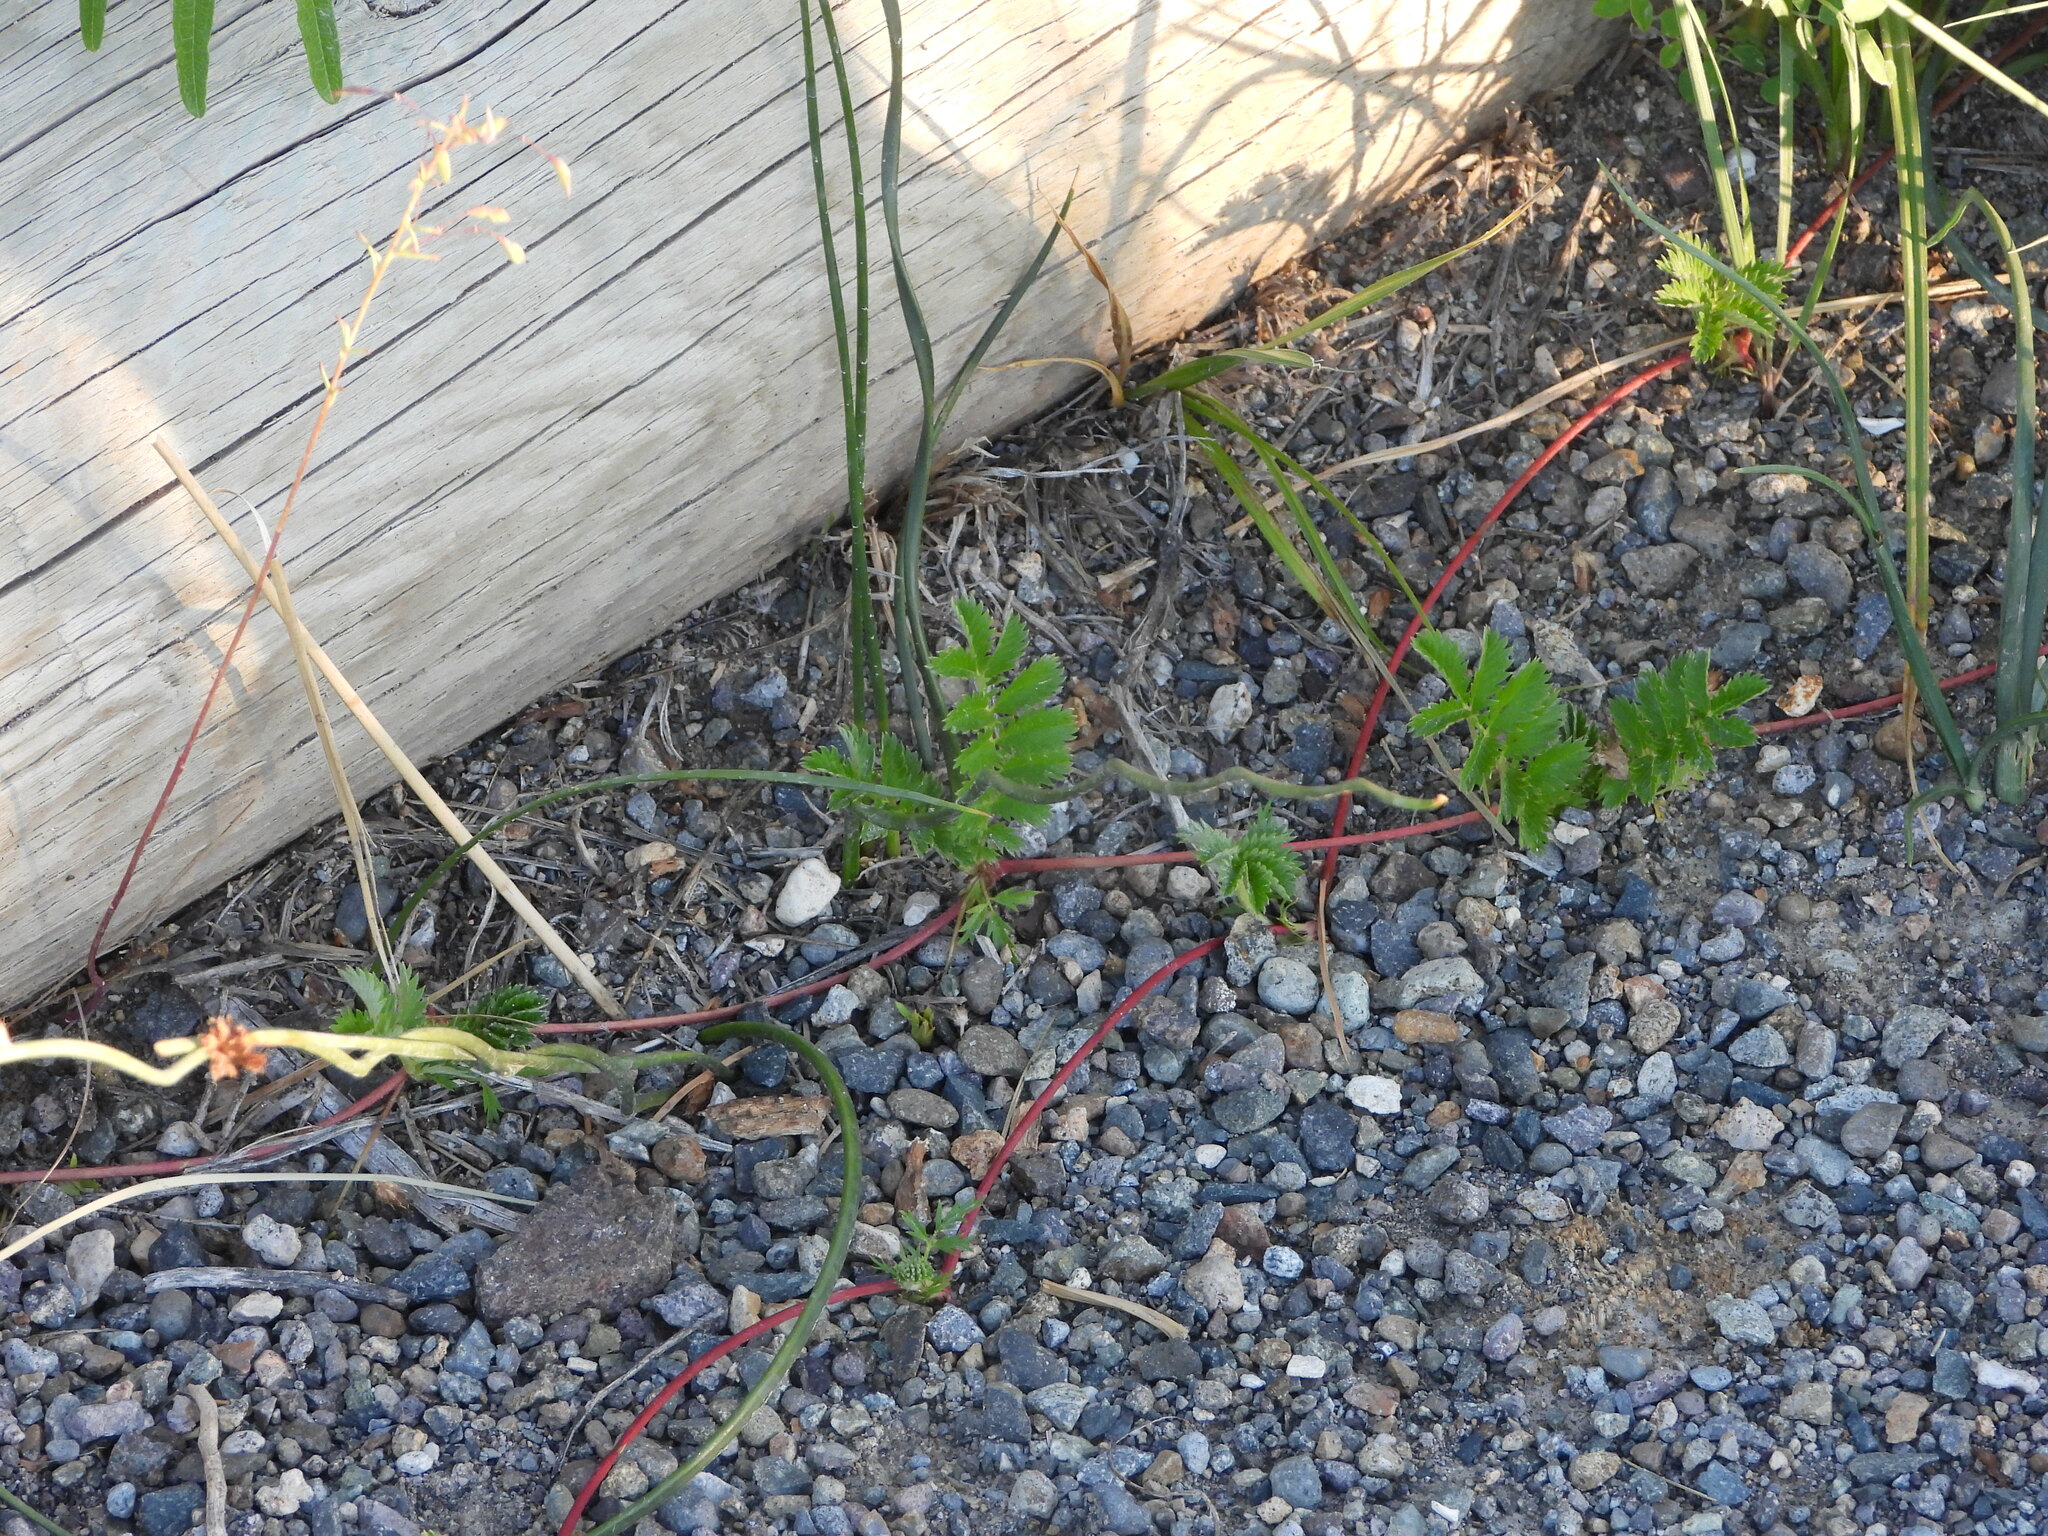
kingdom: Plantae
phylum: Tracheophyta
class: Magnoliopsida
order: Rosales
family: Rosaceae
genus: Argentina
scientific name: Argentina anserina
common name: Common silverweed
